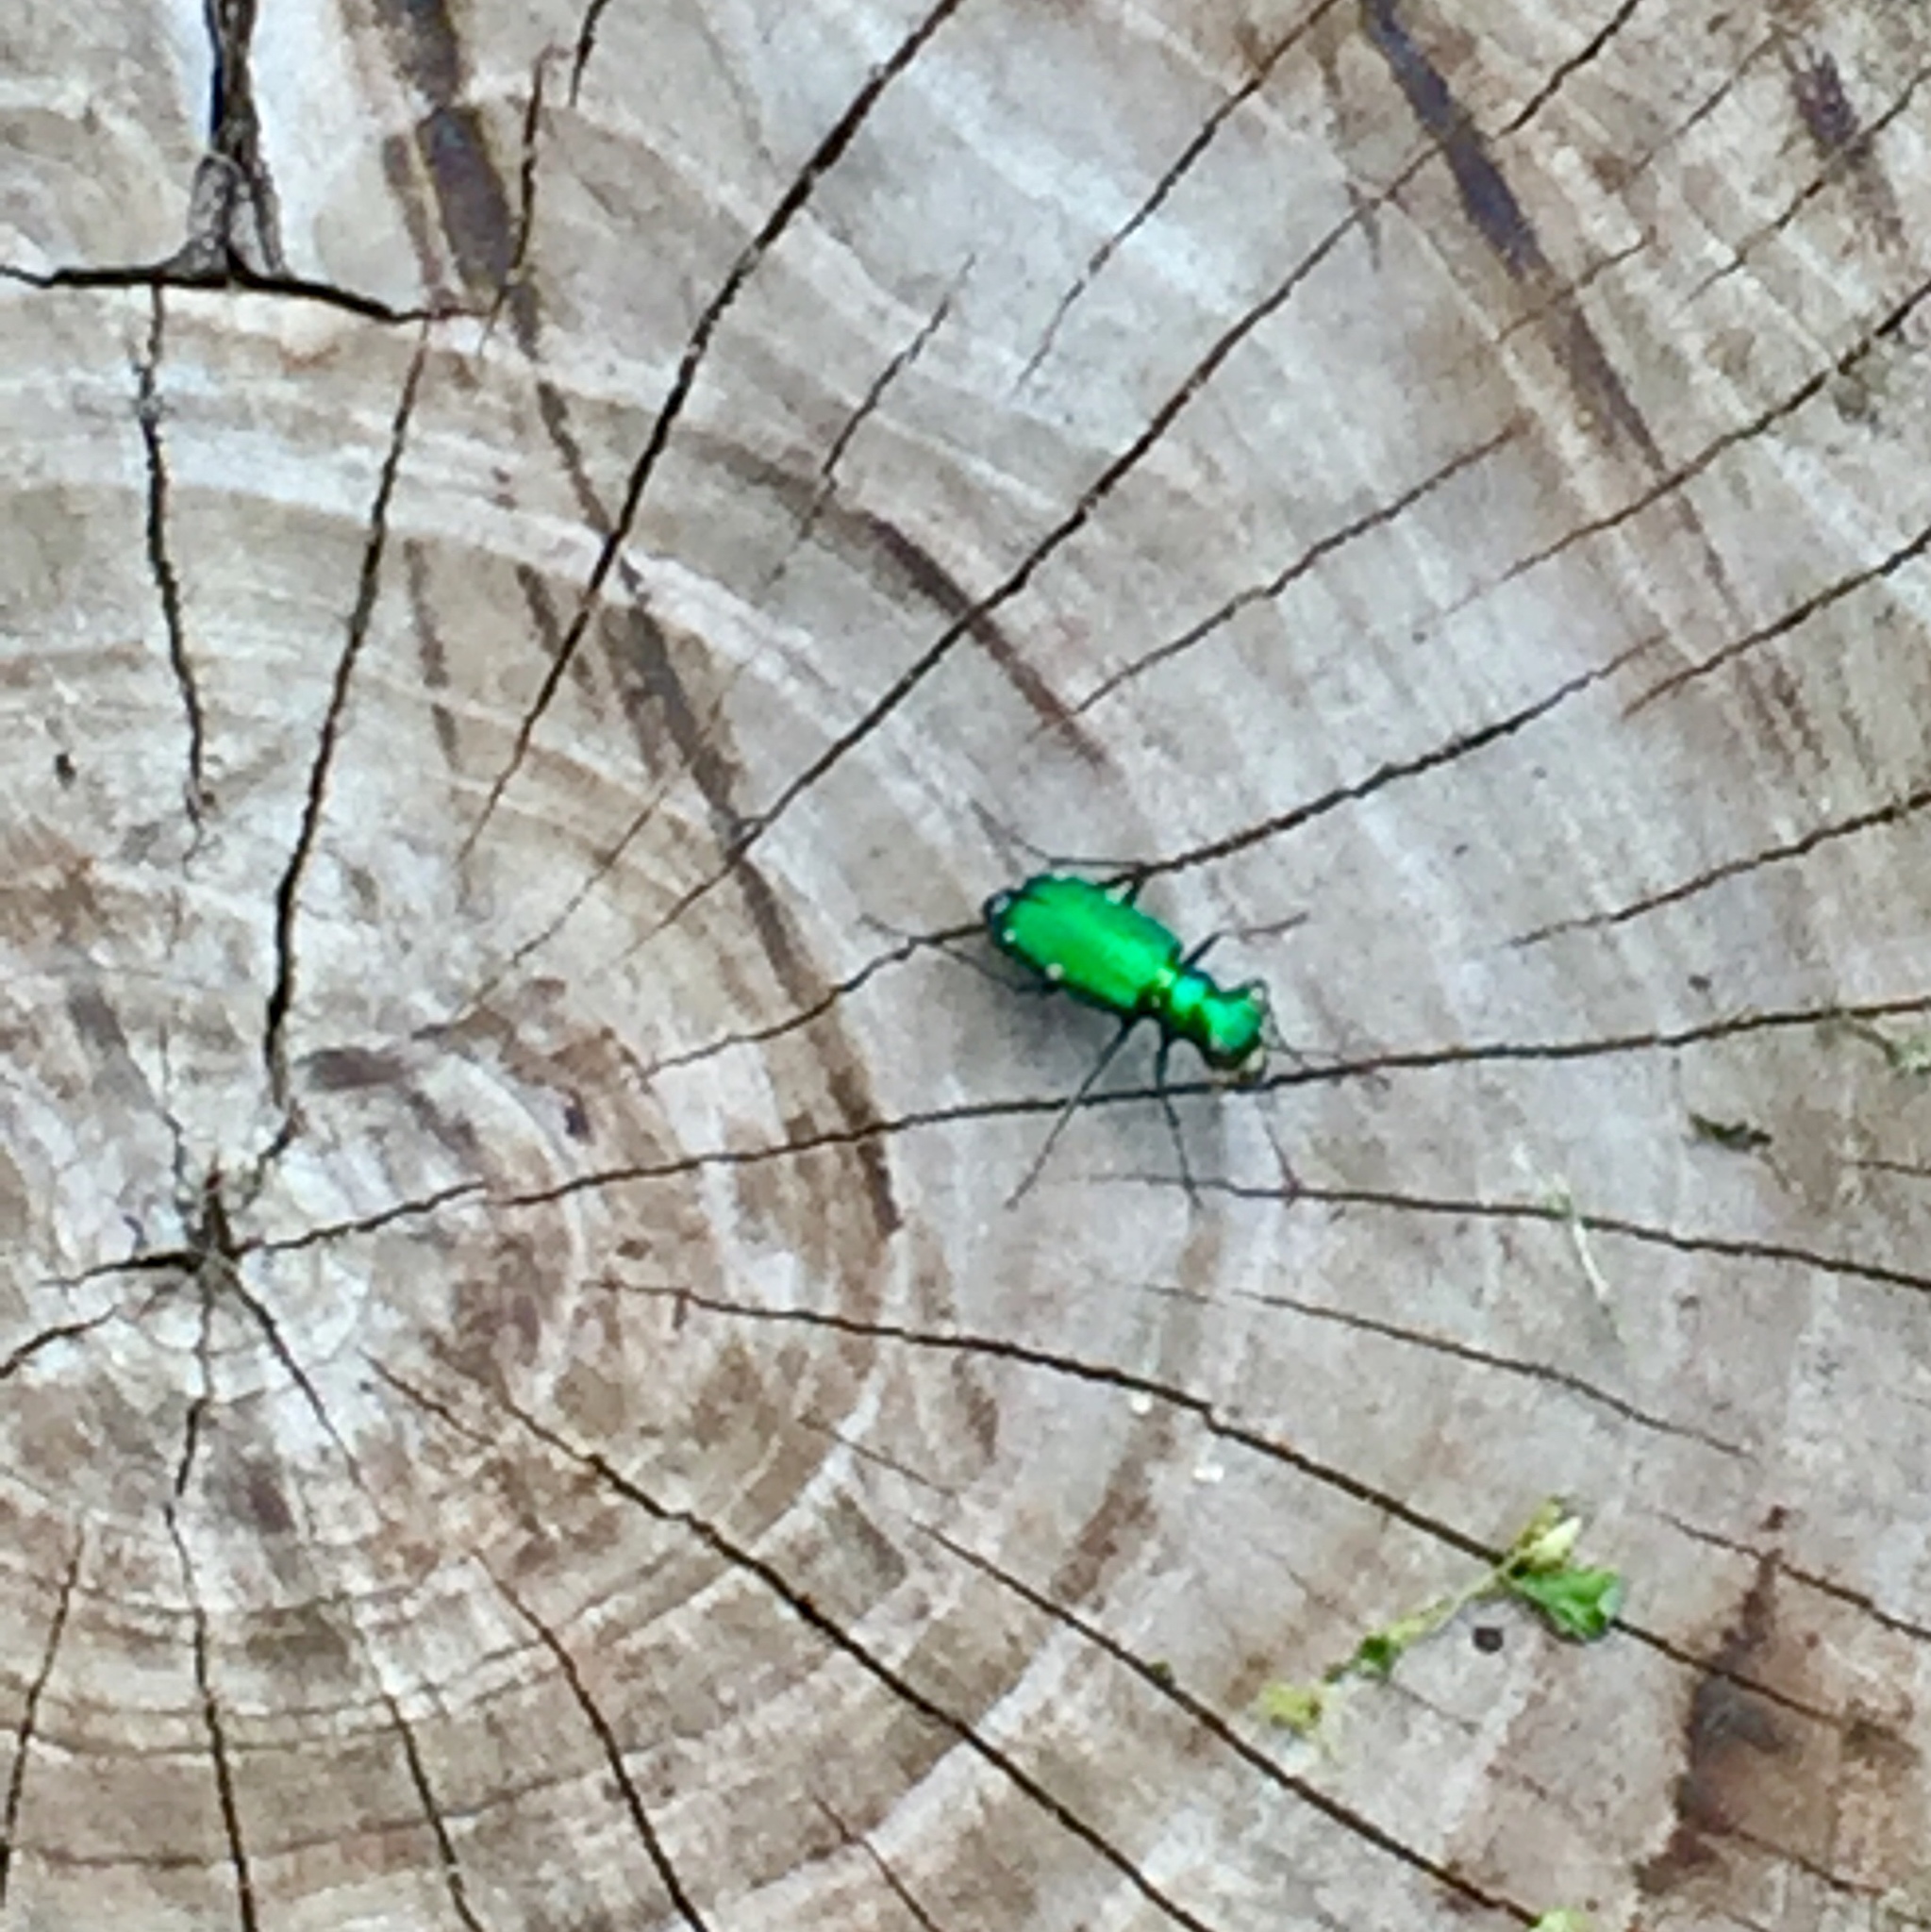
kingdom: Animalia
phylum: Arthropoda
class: Insecta
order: Coleoptera
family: Carabidae
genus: Cicindela
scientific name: Cicindela sexguttata
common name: Six-spotted tiger beetle
